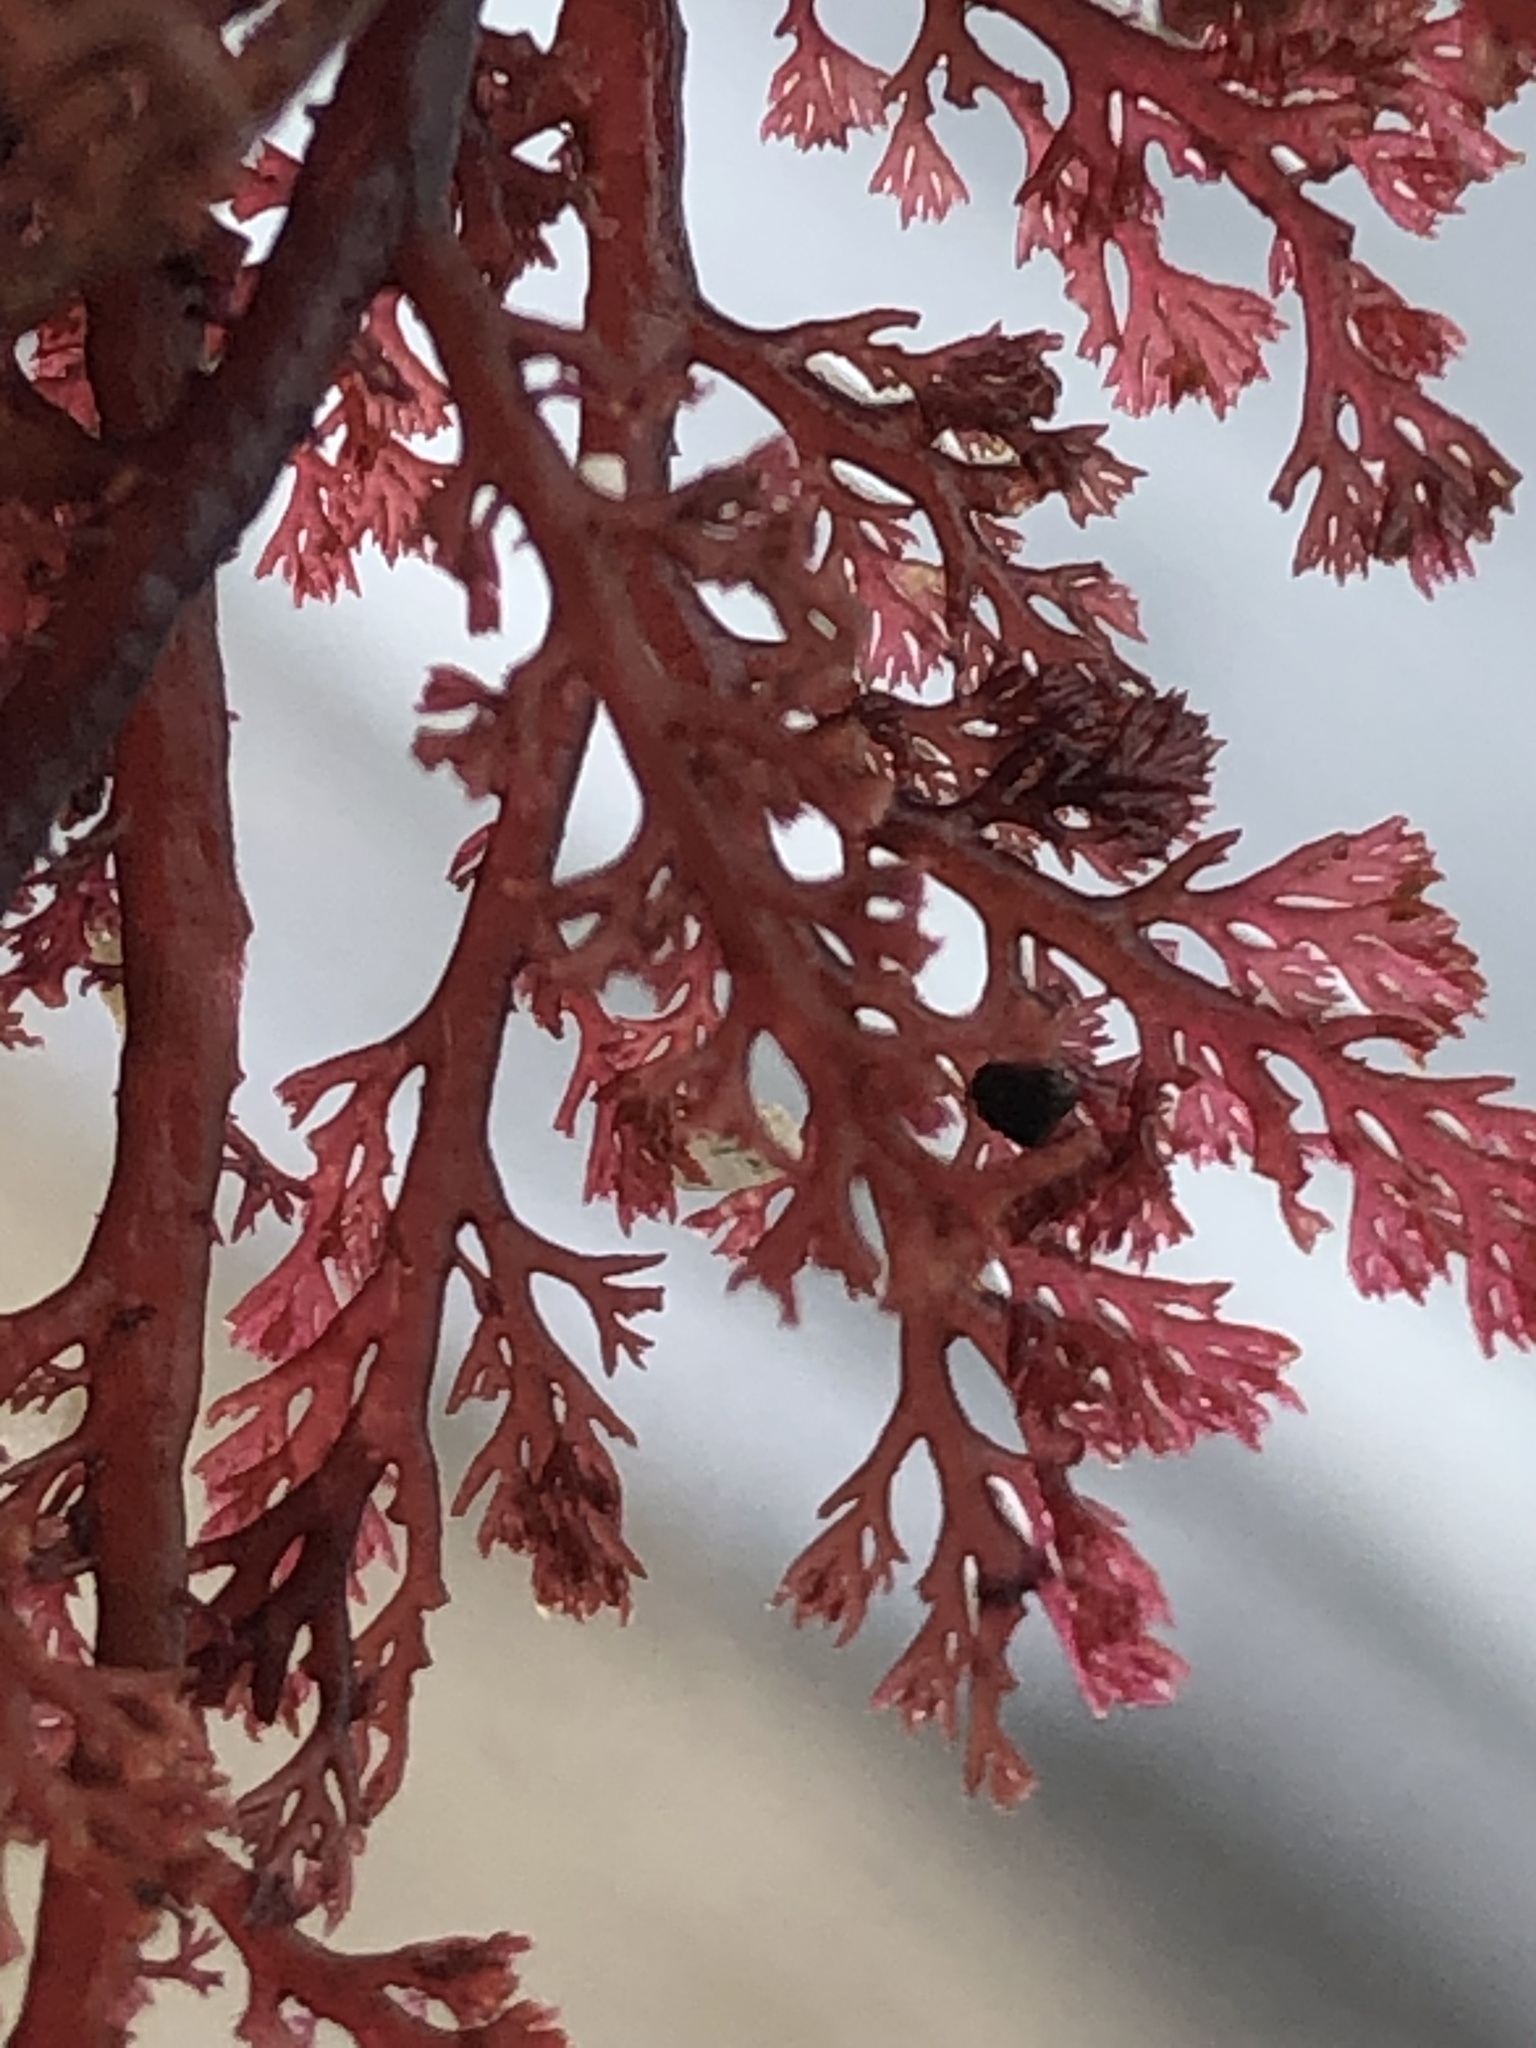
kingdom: Plantae
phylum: Rhodophyta
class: Florideophyceae
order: Ceramiales
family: Ceramiaceae
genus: Microcladia
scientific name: Microcladia coulteri
